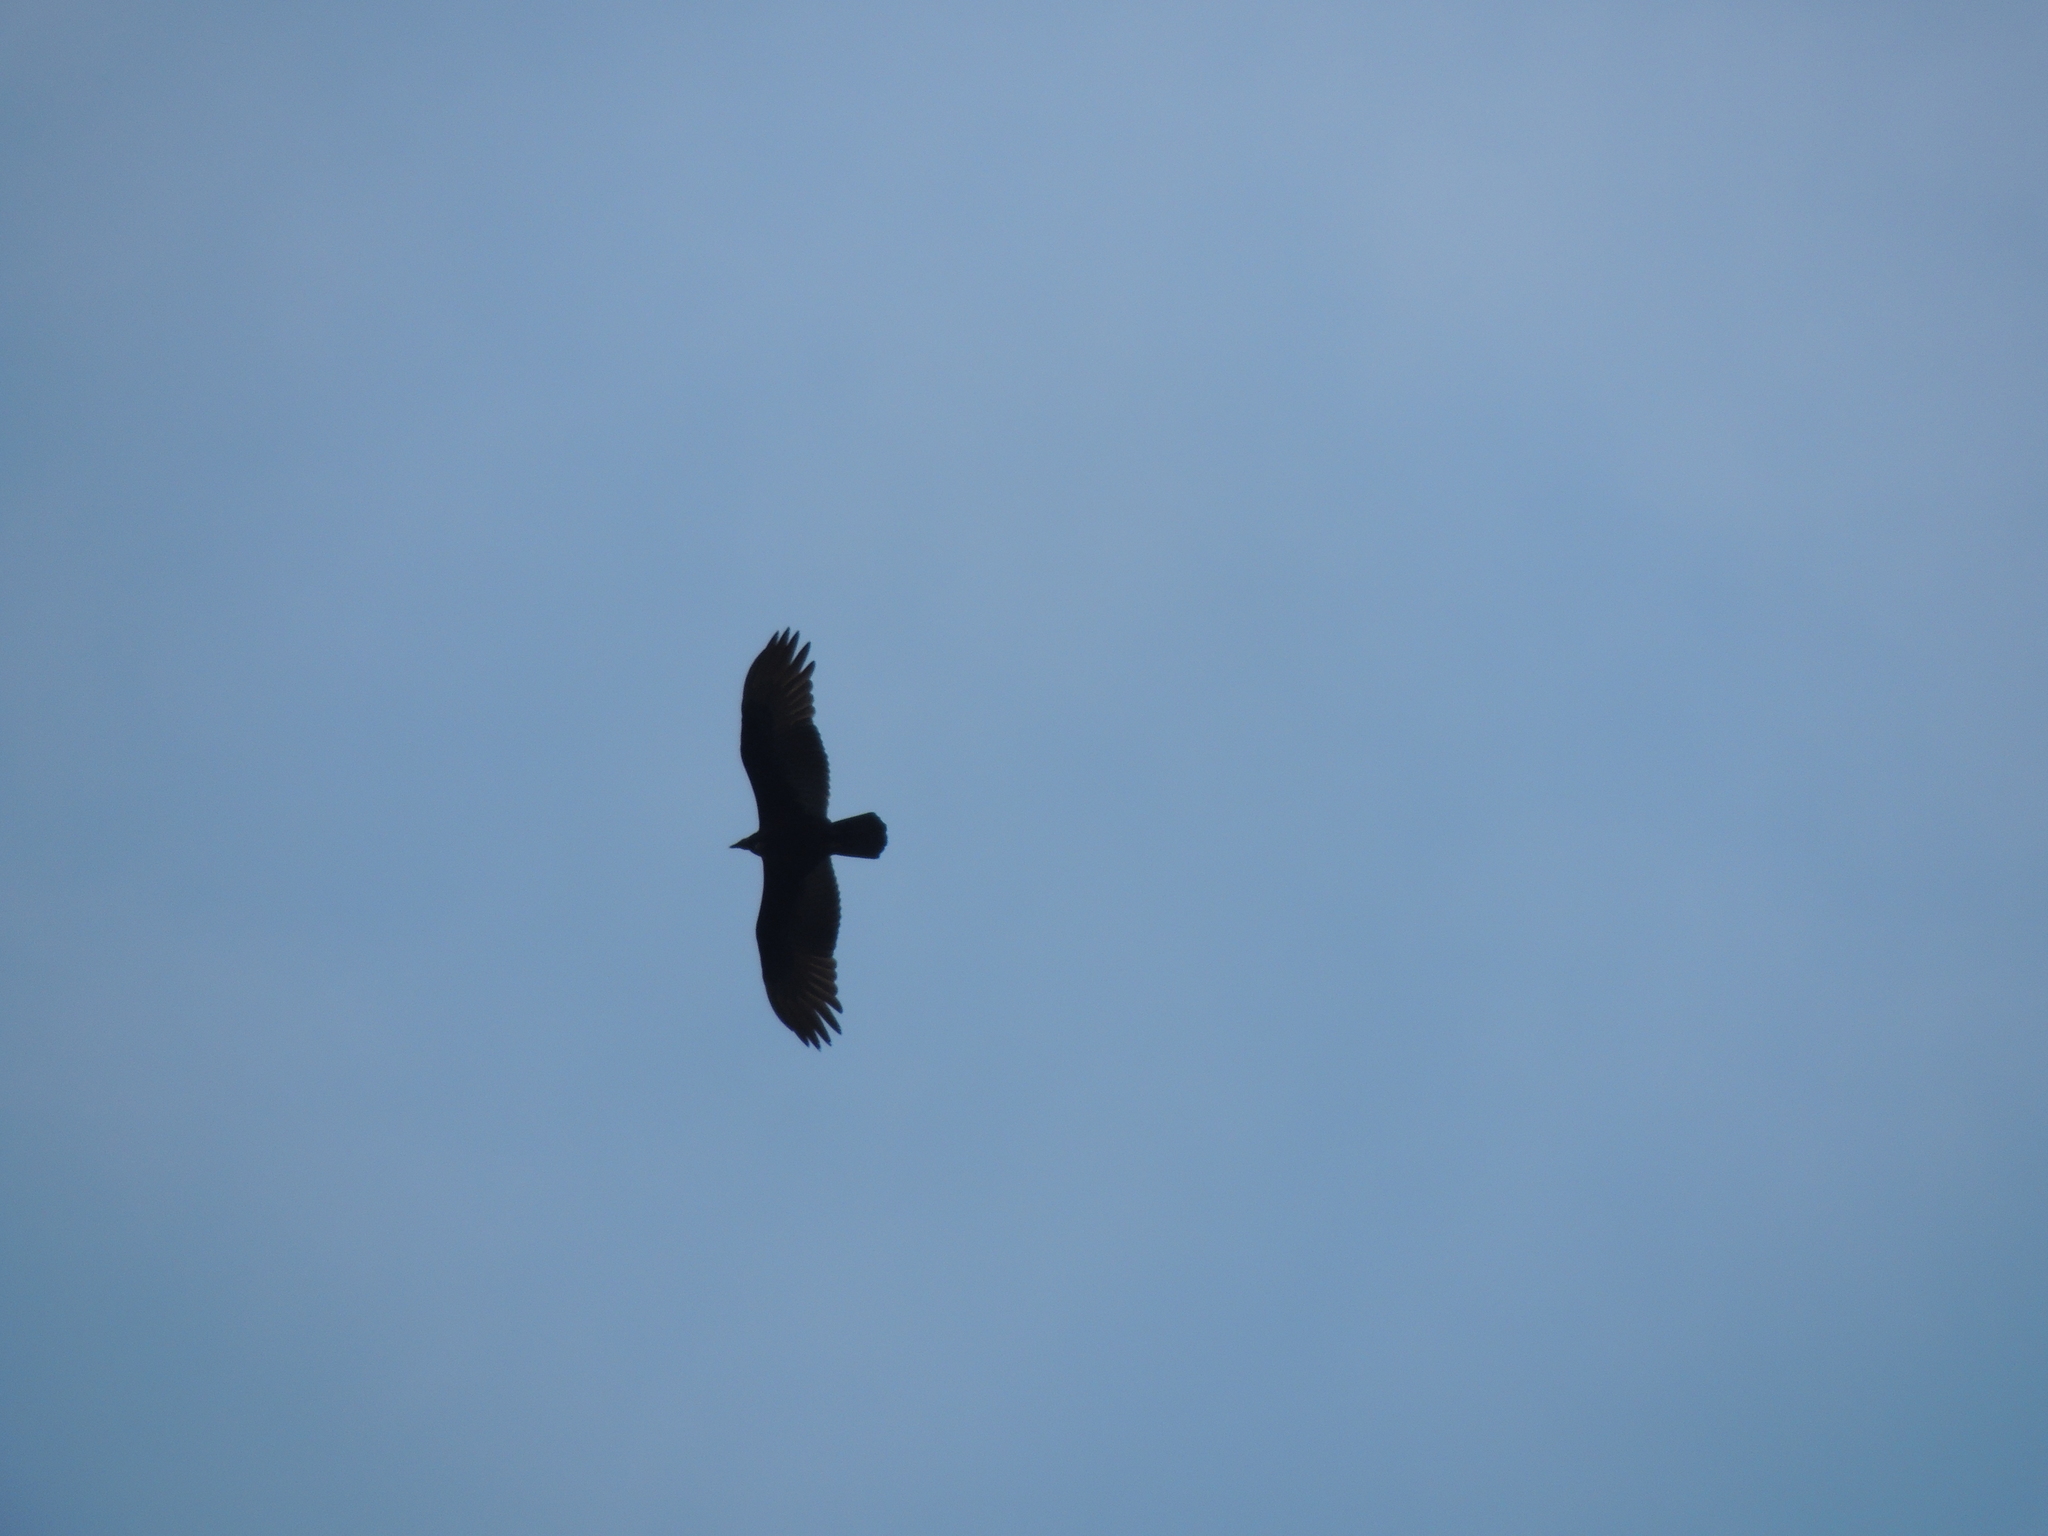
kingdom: Animalia
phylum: Chordata
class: Aves
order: Accipitriformes
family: Cathartidae
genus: Cathartes
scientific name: Cathartes aura
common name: Turkey vulture
